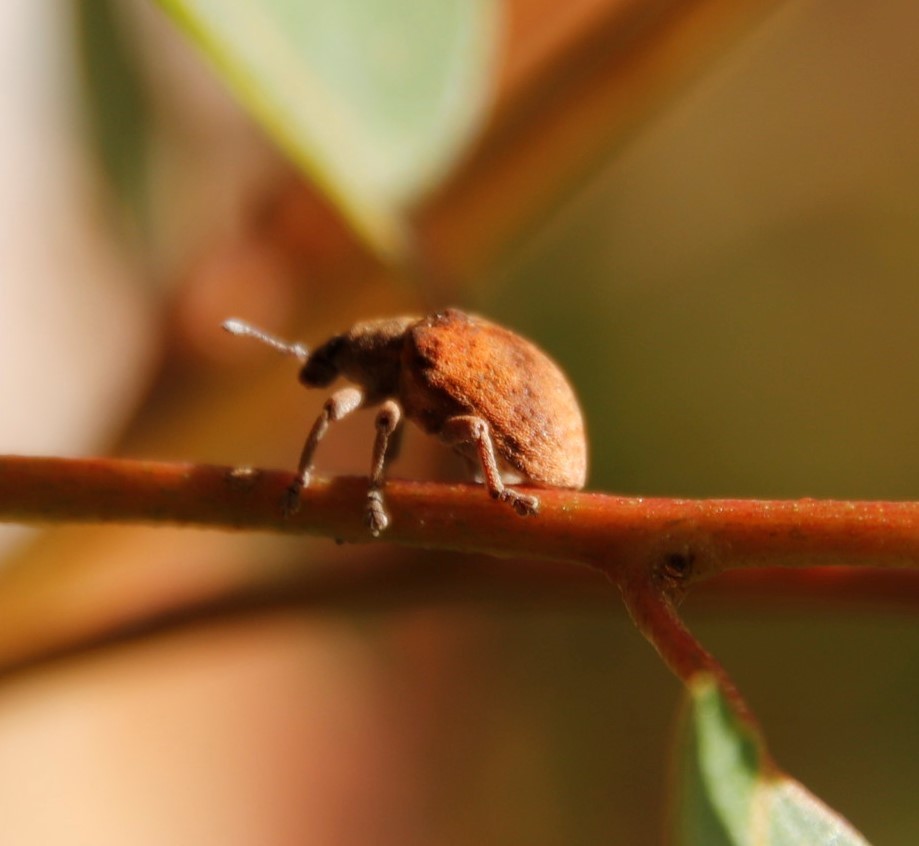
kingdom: Animalia
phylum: Arthropoda
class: Insecta
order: Coleoptera
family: Curculionidae
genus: Gonipterus
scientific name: Gonipterus
